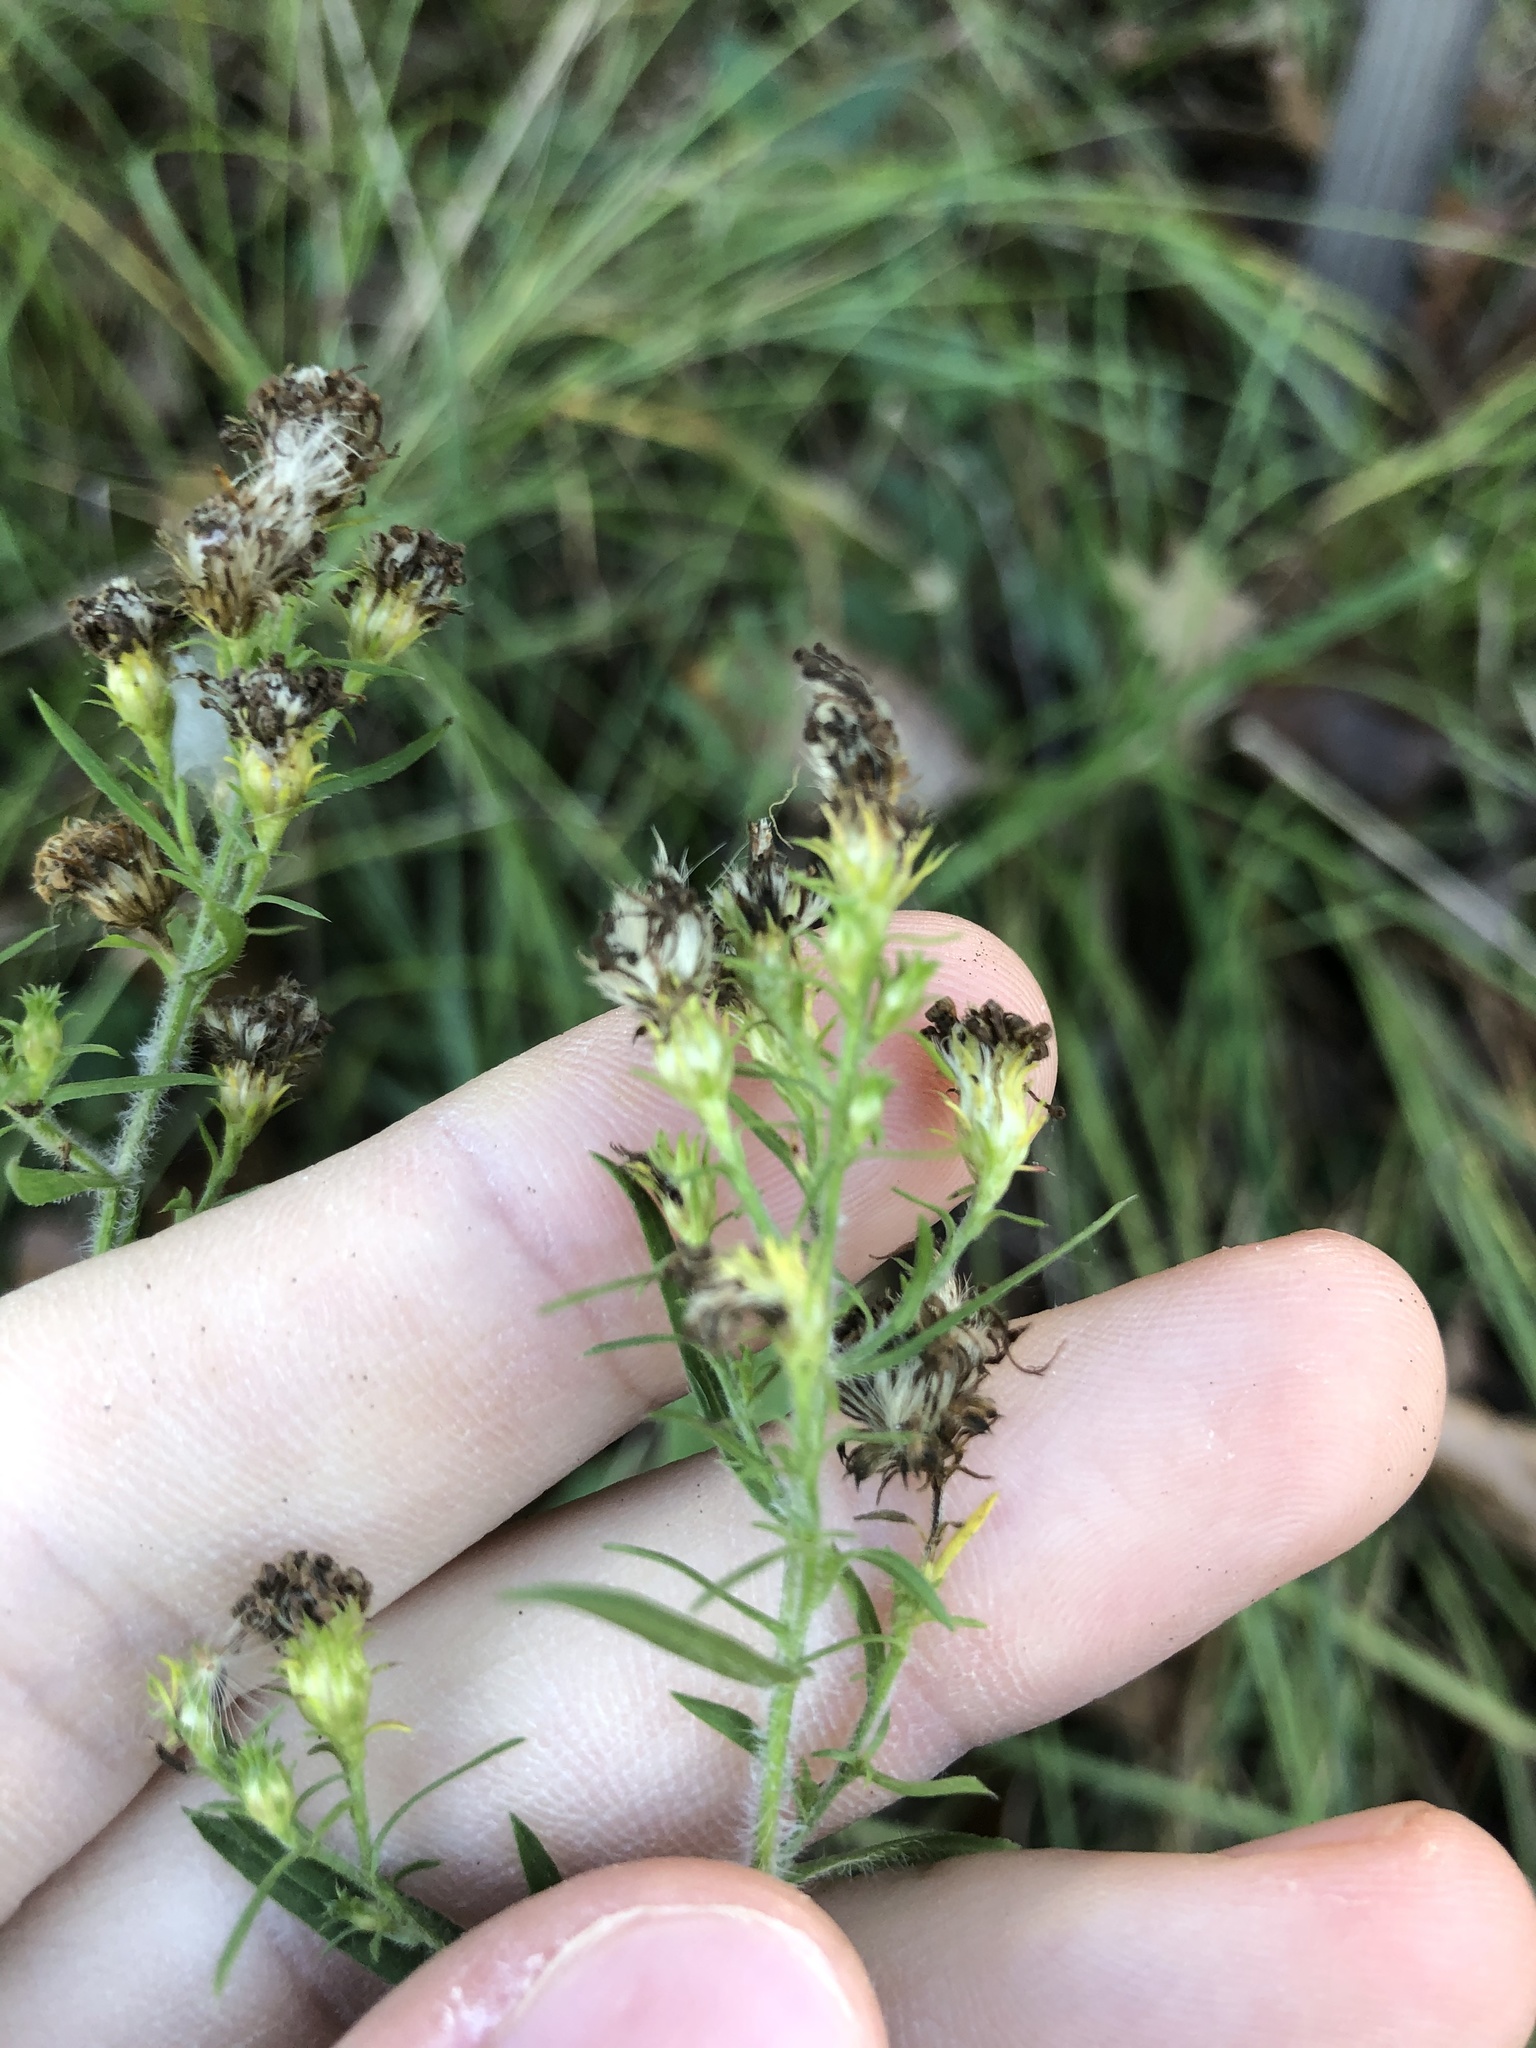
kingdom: Plantae
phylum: Tracheophyta
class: Magnoliopsida
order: Asterales
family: Asteraceae
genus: Symphyotrichum
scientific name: Symphyotrichum pilosum
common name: Awl aster
